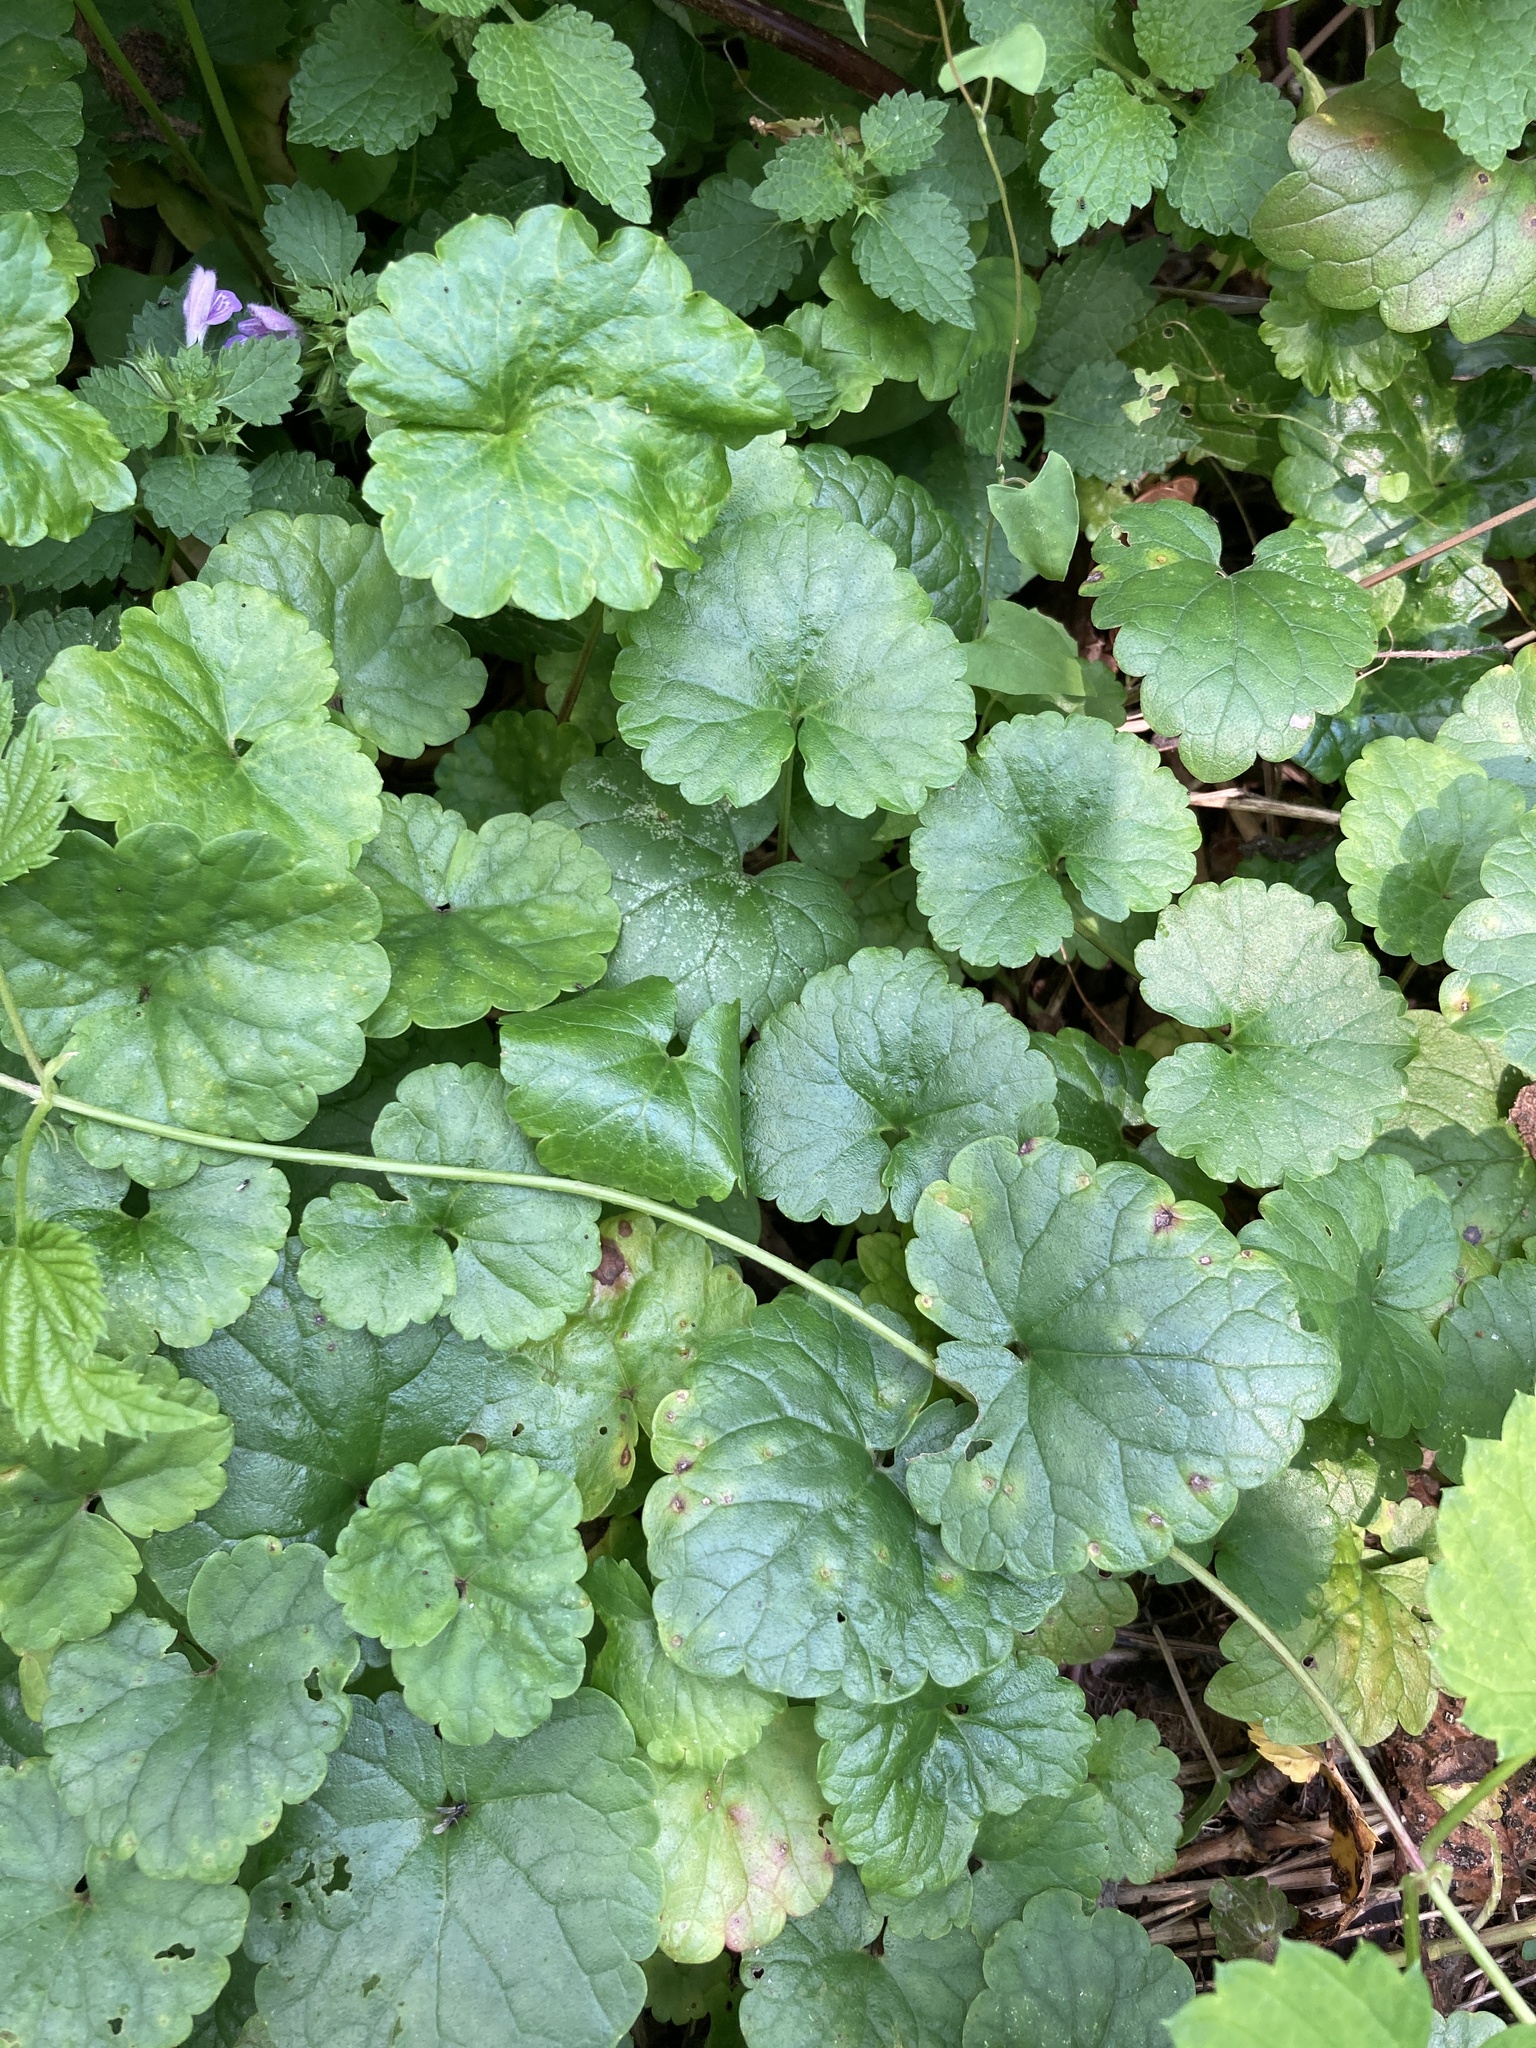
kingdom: Plantae
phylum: Tracheophyta
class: Magnoliopsida
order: Lamiales
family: Lamiaceae
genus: Glechoma
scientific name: Glechoma hederacea
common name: Ground ivy
